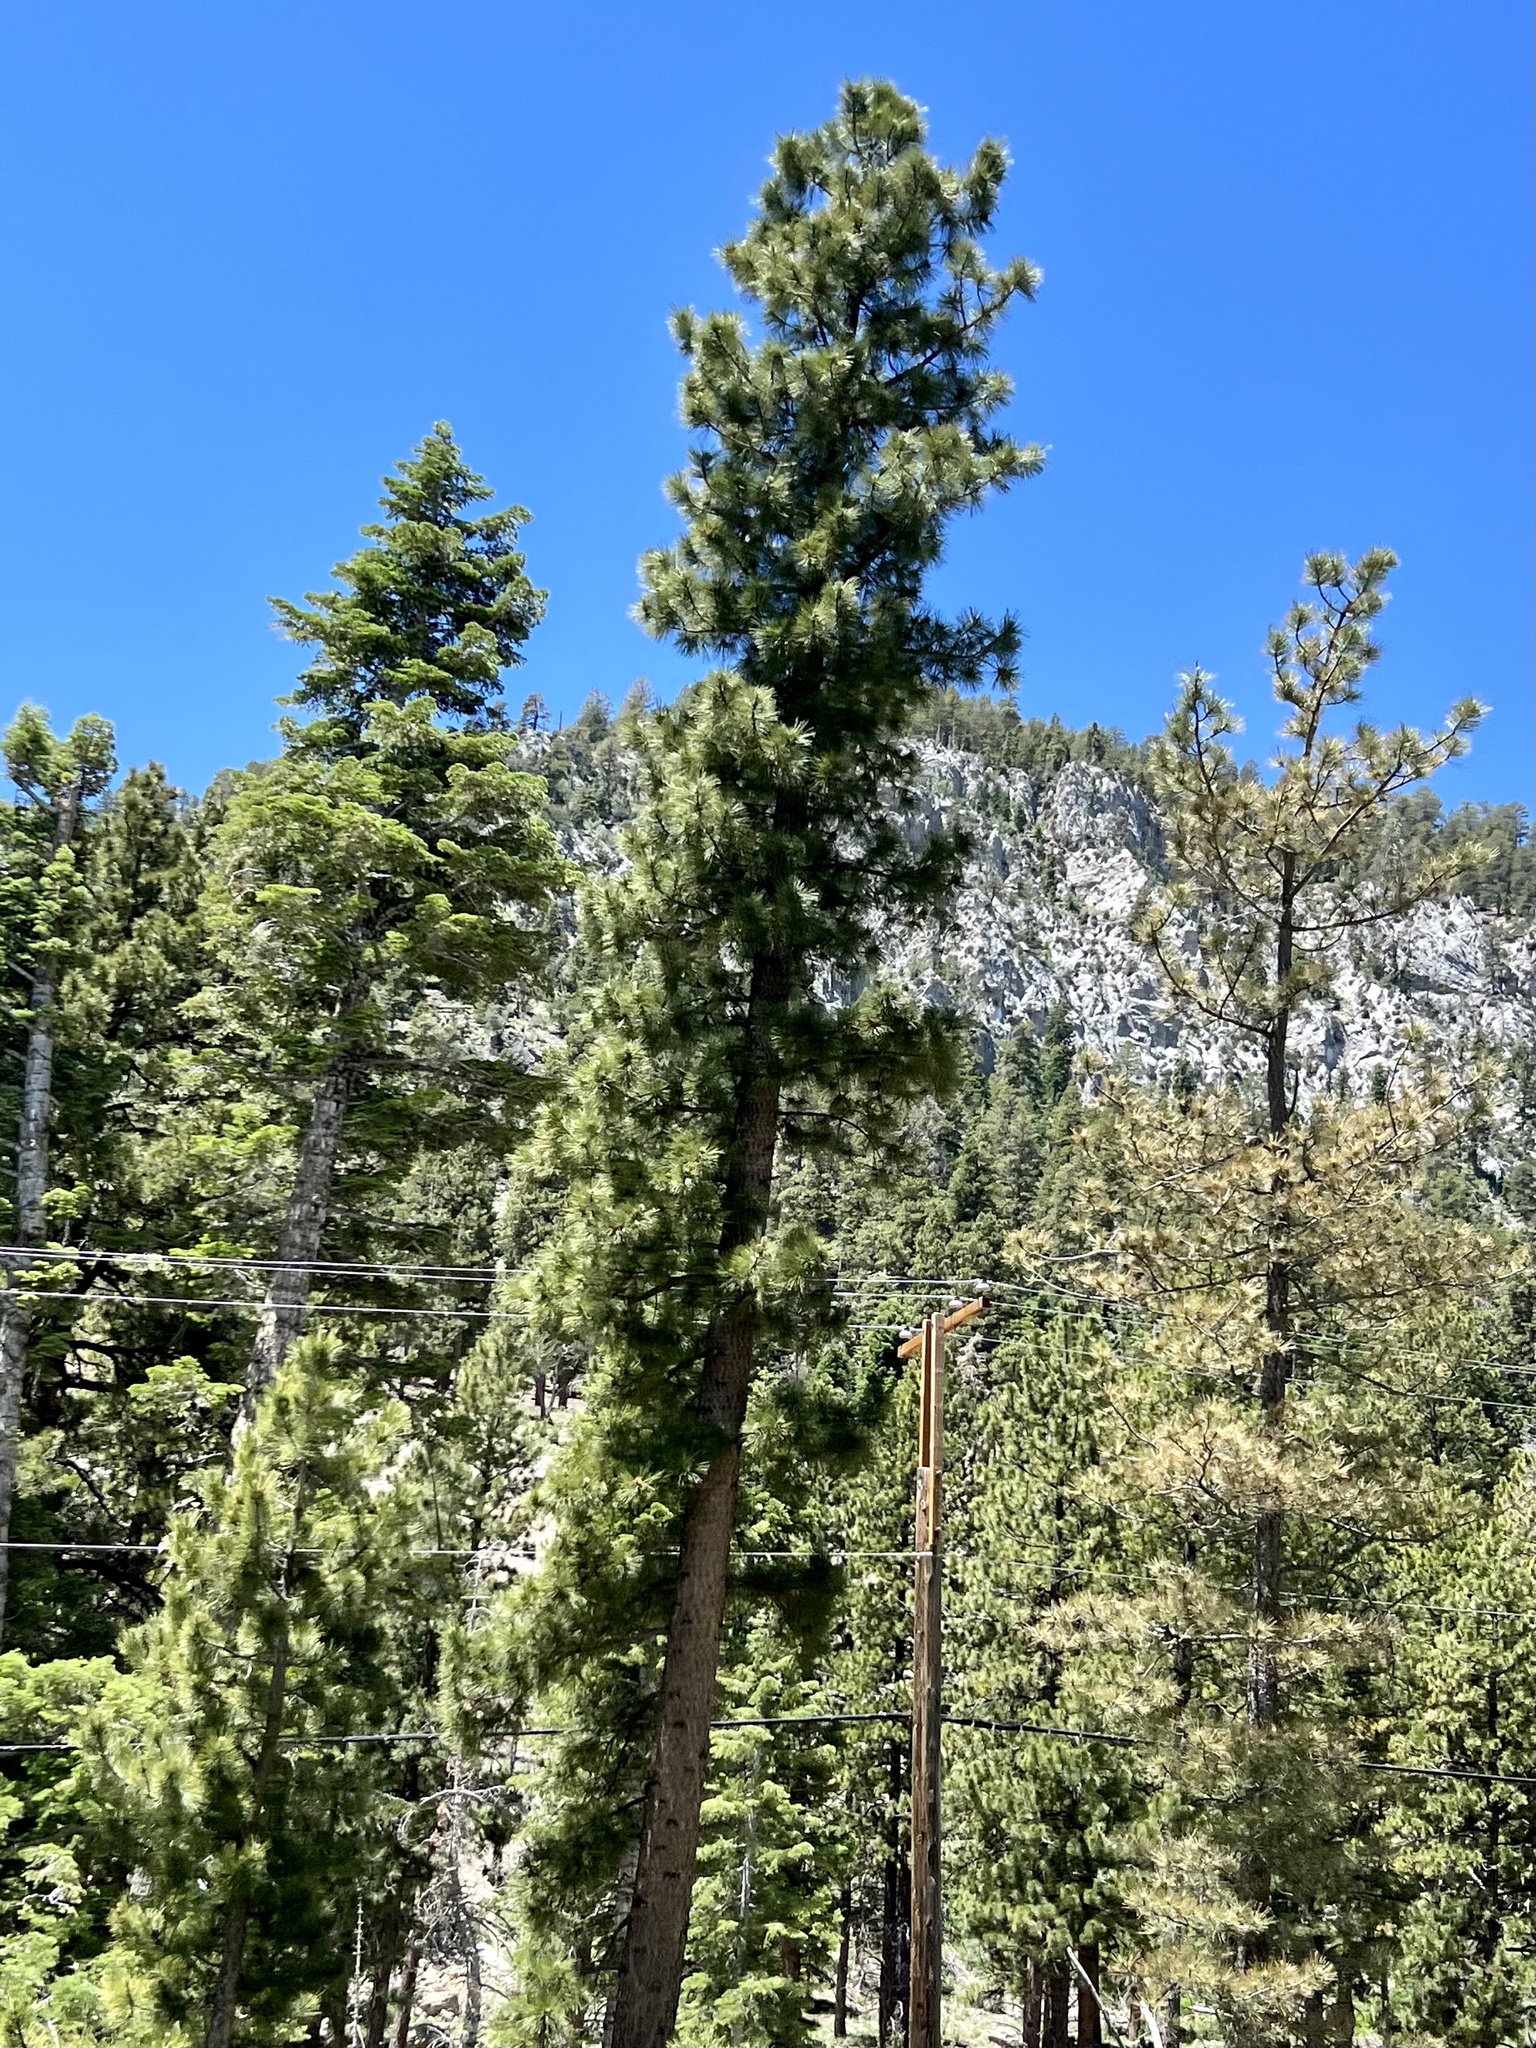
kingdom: Plantae
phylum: Tracheophyta
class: Pinopsida
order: Pinales
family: Pinaceae
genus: Pinus
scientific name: Pinus ponderosa
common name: Western yellow-pine
